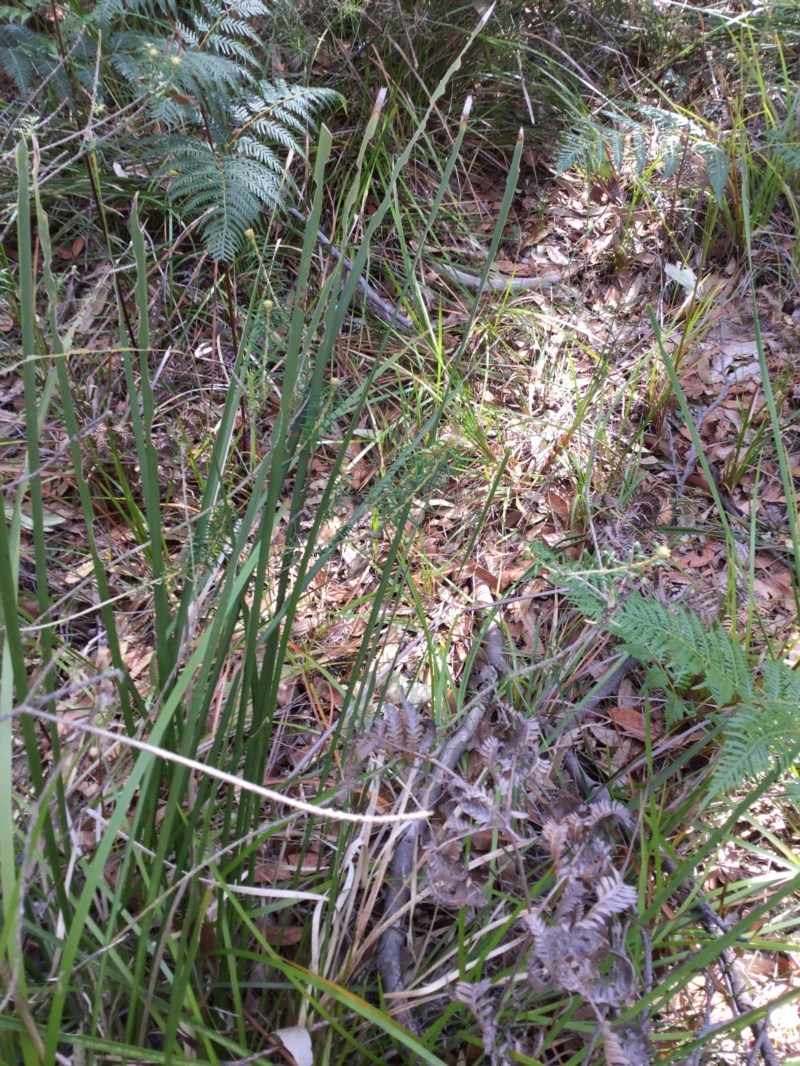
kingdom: Plantae
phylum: Tracheophyta
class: Magnoliopsida
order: Apiales
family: Araliaceae
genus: Astrotricha
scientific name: Astrotricha
